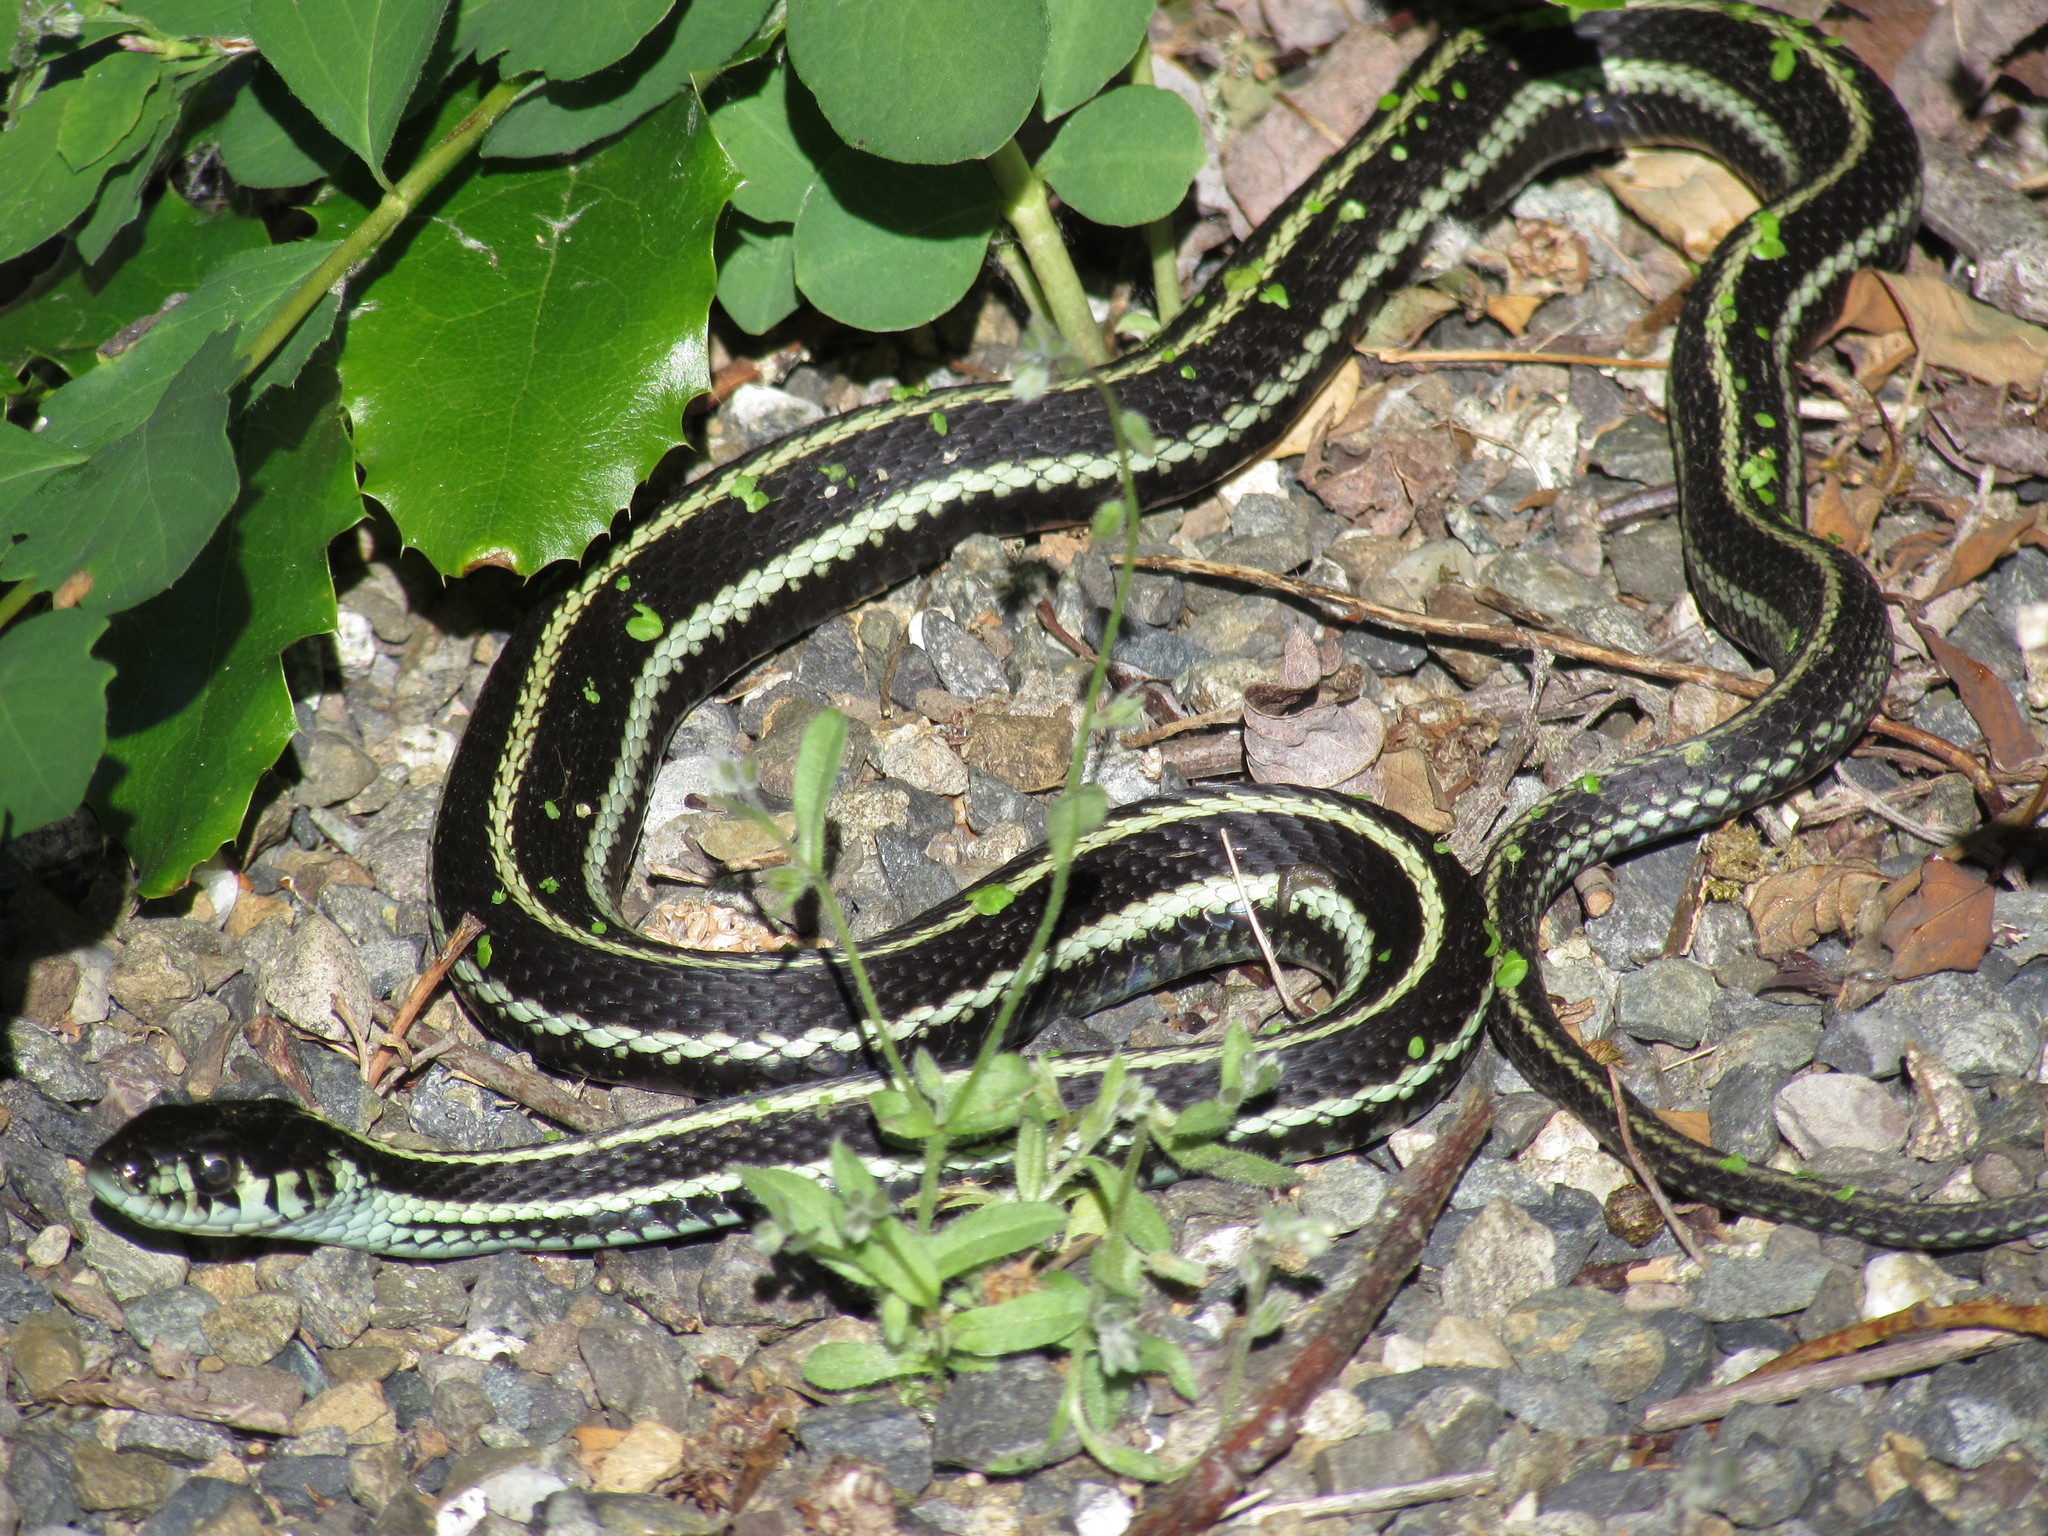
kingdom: Animalia
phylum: Chordata
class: Squamata
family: Colubridae
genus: Thamnophis
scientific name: Thamnophis sirtalis
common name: Common garter snake
